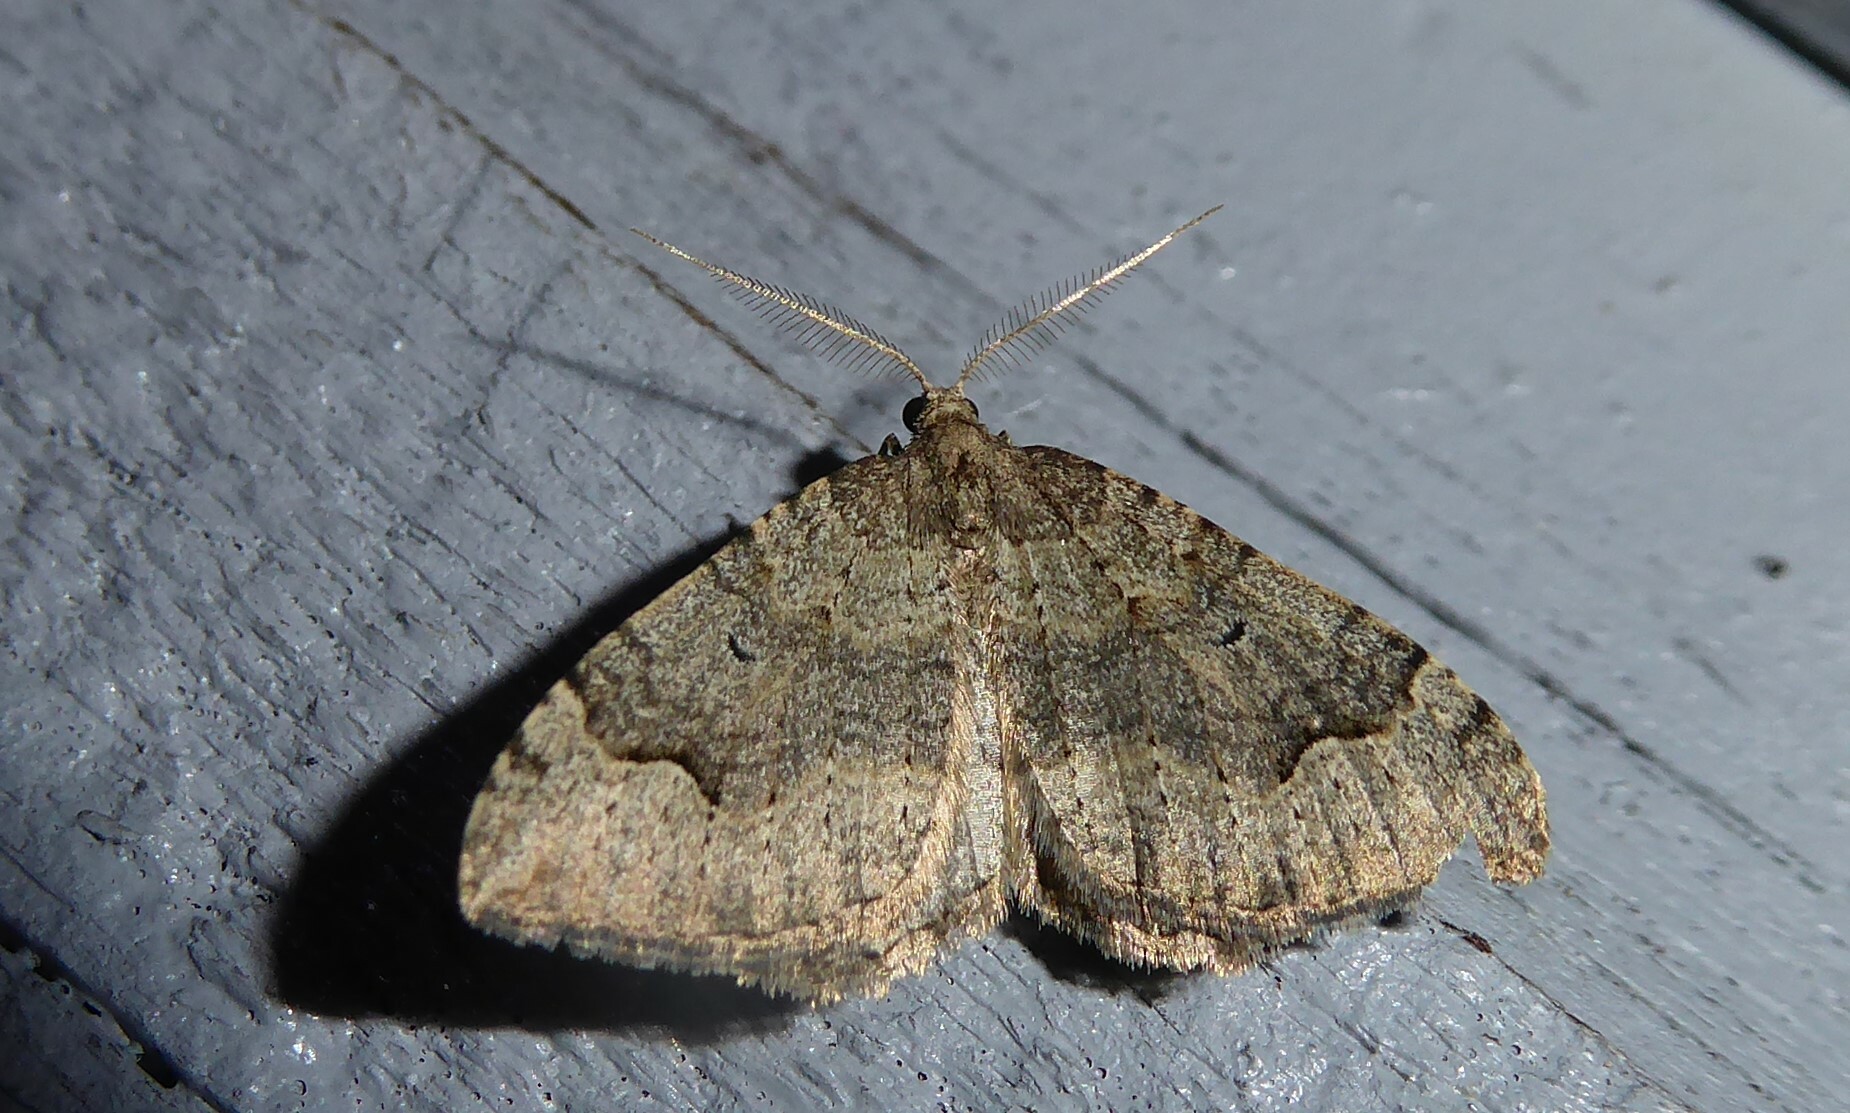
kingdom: Animalia
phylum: Arthropoda
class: Insecta
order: Lepidoptera
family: Geometridae
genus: Epyaxa
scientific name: Epyaxa rosearia
